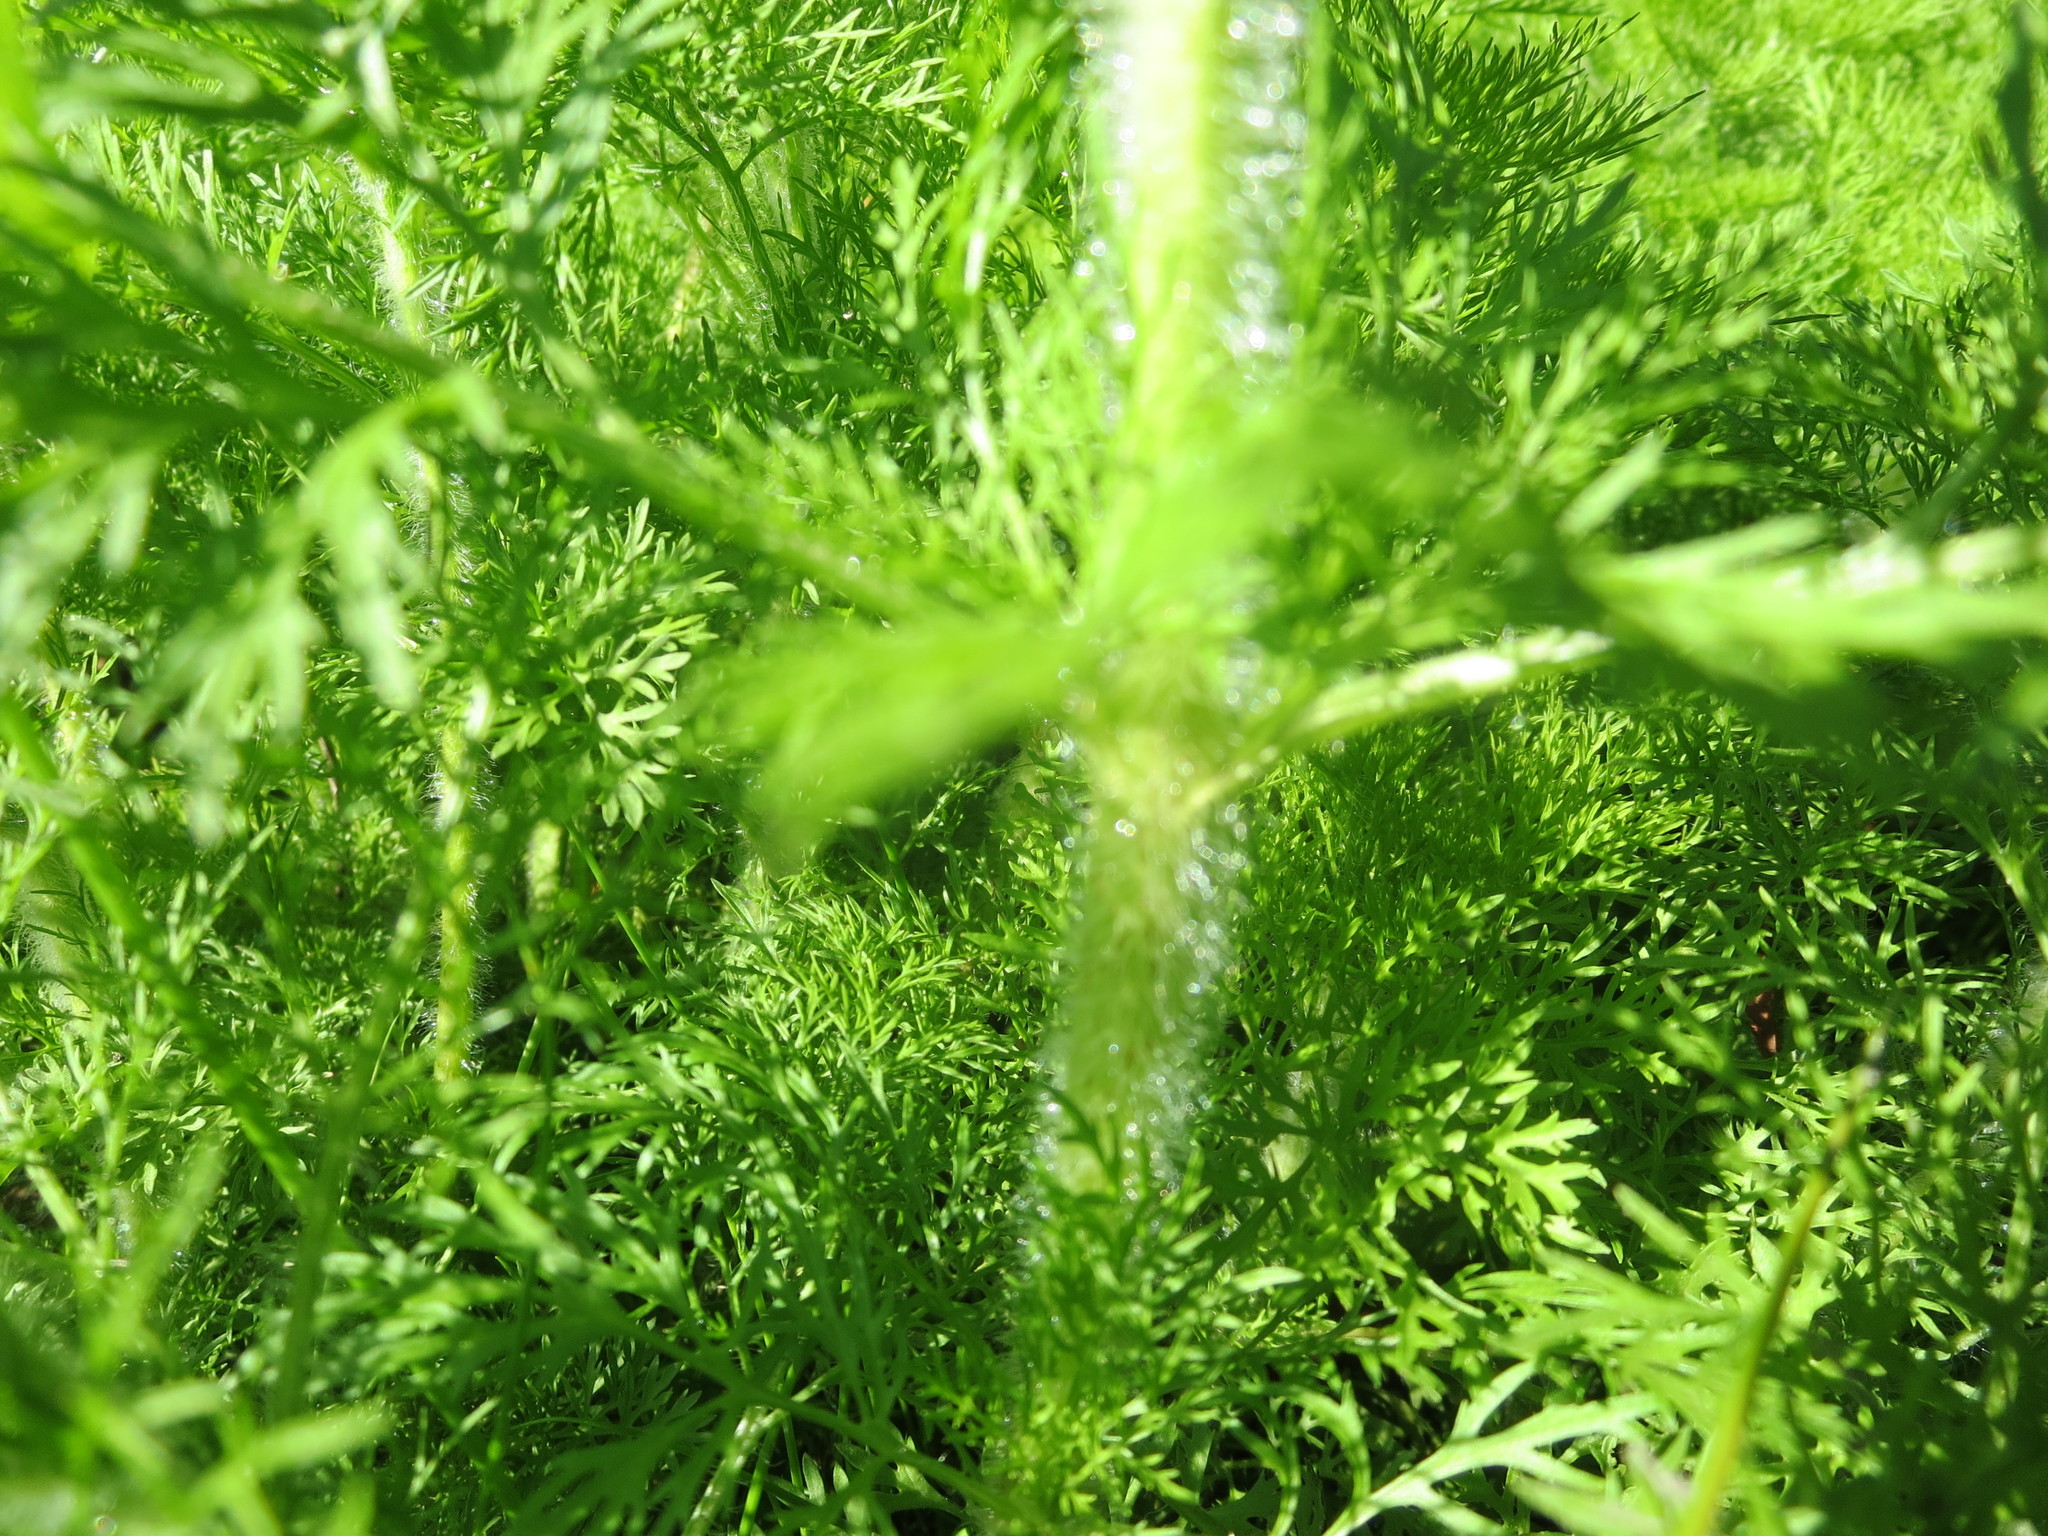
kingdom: Plantae
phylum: Tracheophyta
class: Magnoliopsida
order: Asterales
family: Asteraceae
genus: Eupatorium
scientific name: Eupatorium capillifolium
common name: Dog-fennel
